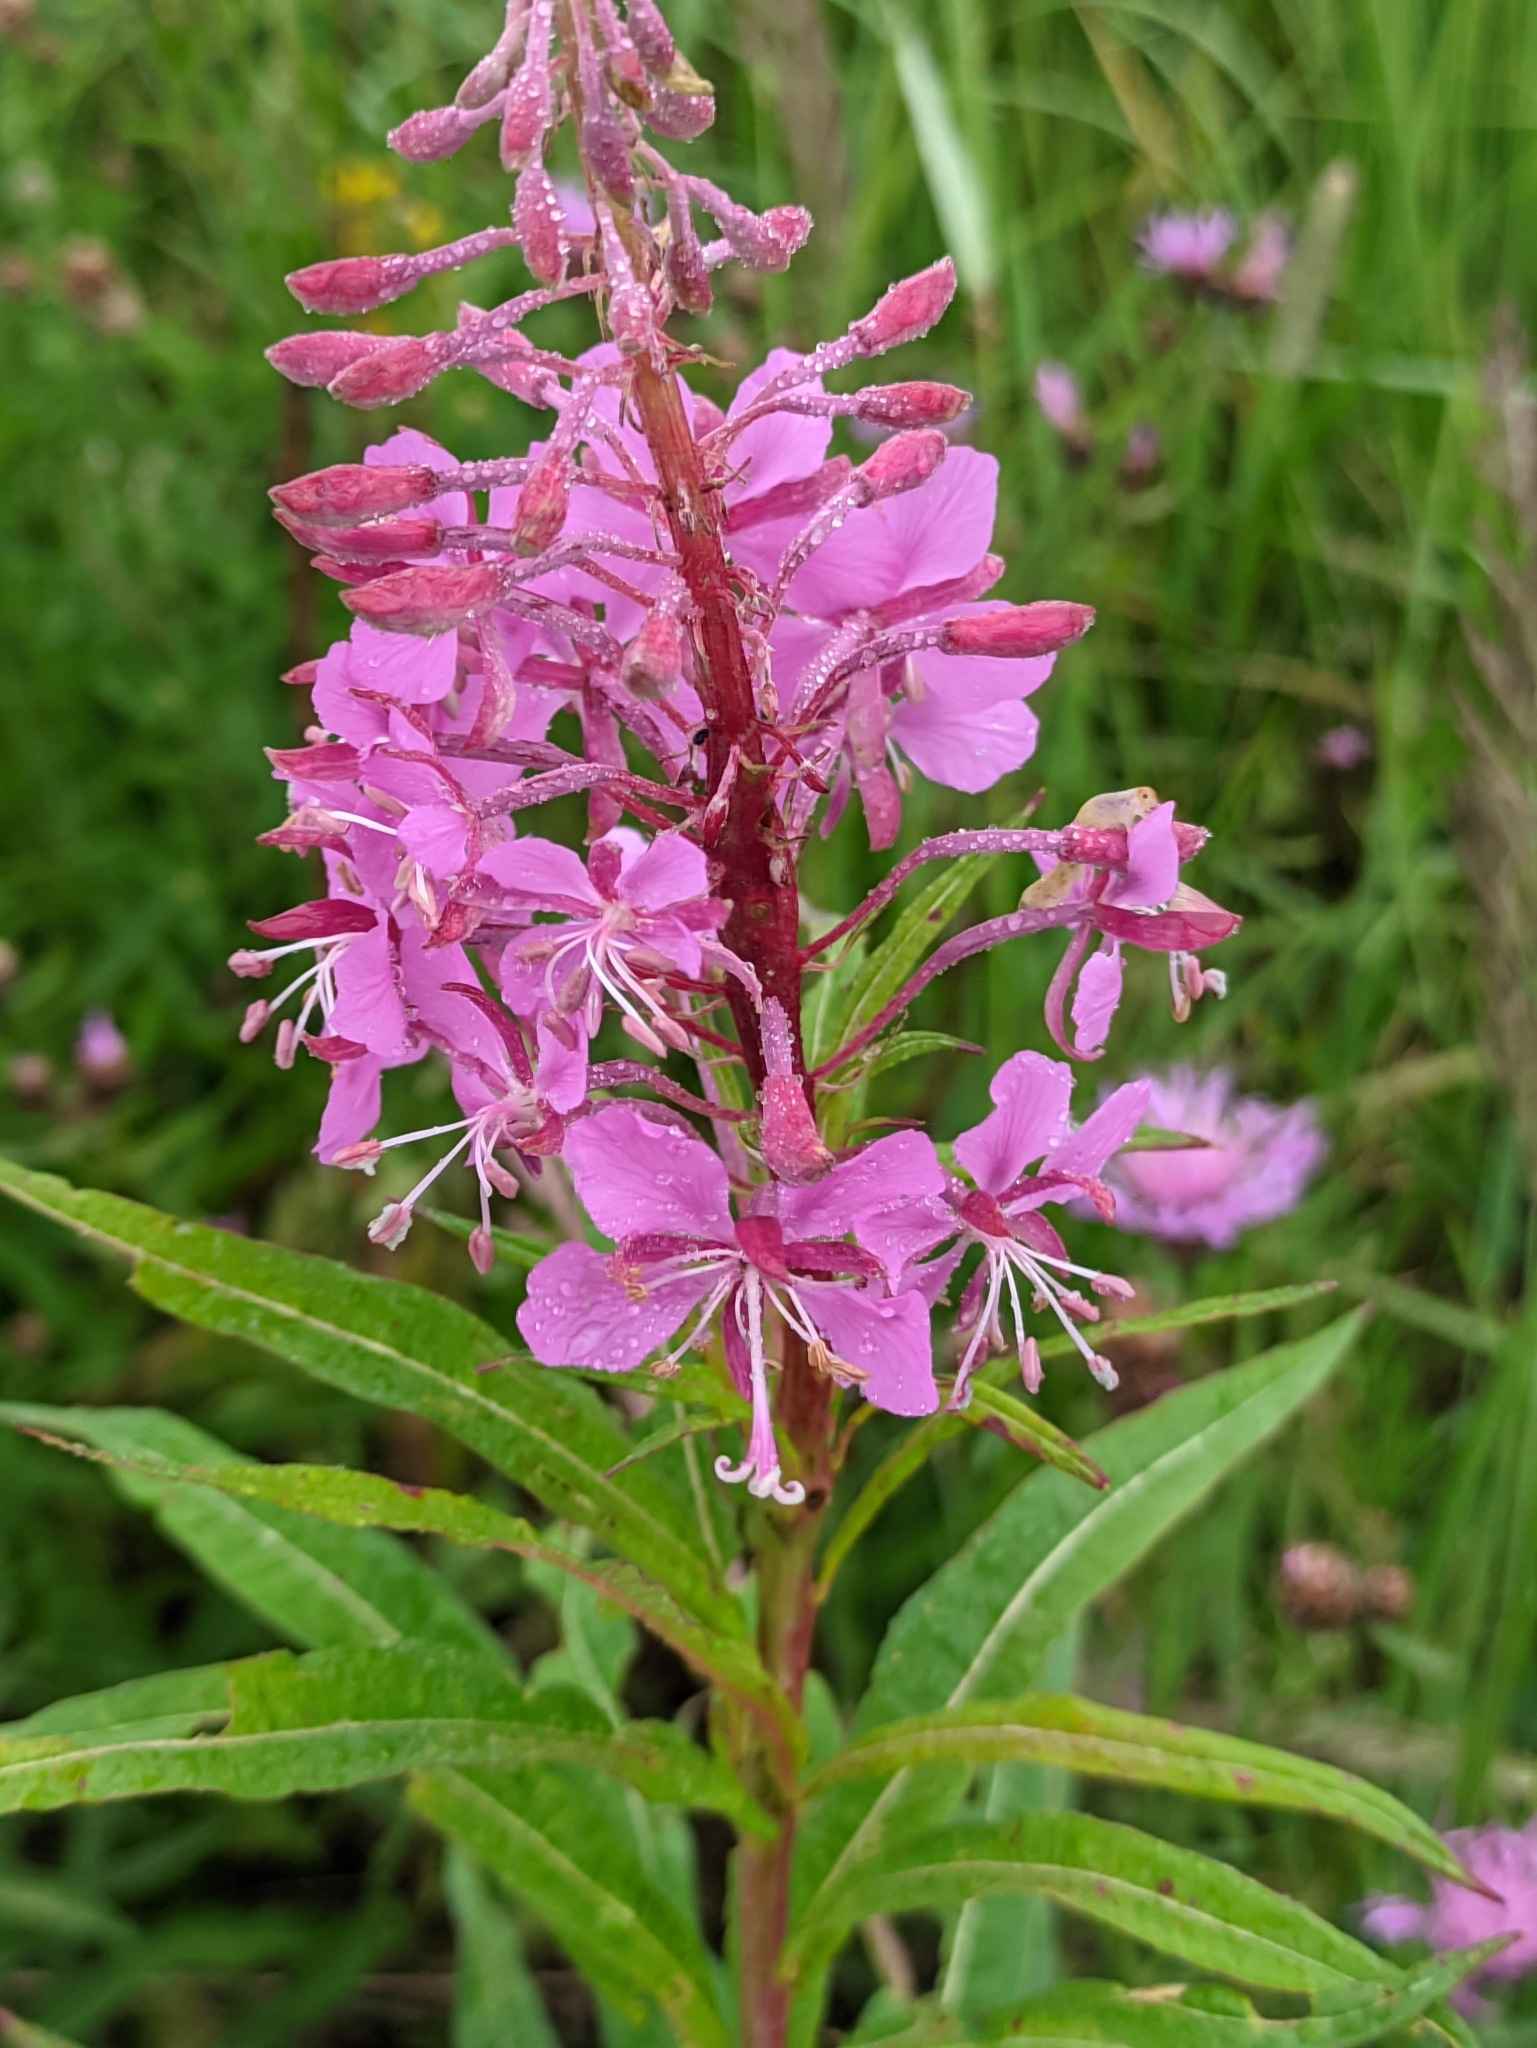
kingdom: Plantae
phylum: Tracheophyta
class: Magnoliopsida
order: Myrtales
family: Onagraceae
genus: Chamaenerion
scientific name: Chamaenerion angustifolium
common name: Fireweed
